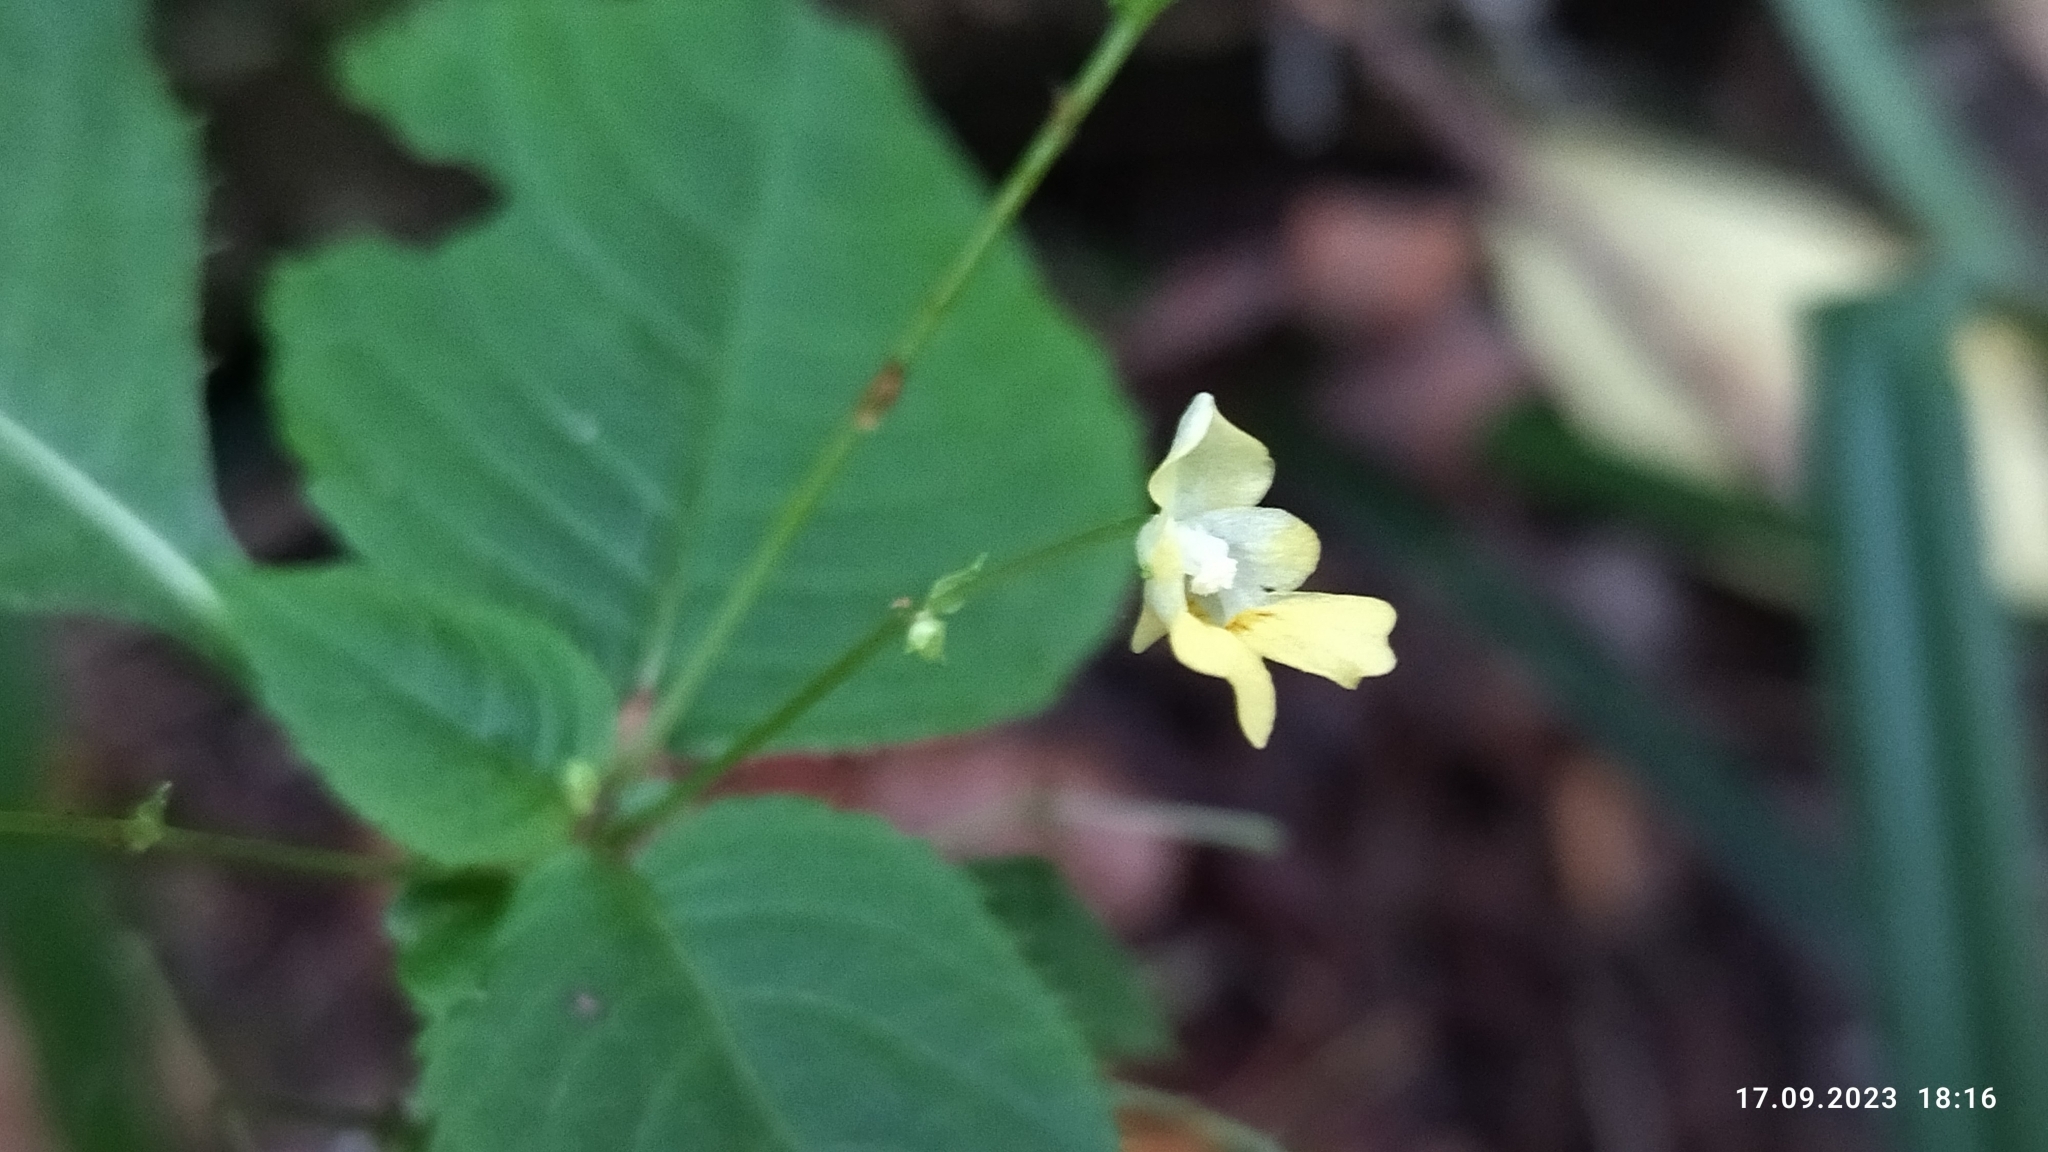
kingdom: Plantae
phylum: Tracheophyta
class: Magnoliopsida
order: Ericales
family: Balsaminaceae
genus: Impatiens
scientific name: Impatiens parviflora
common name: Small balsam
